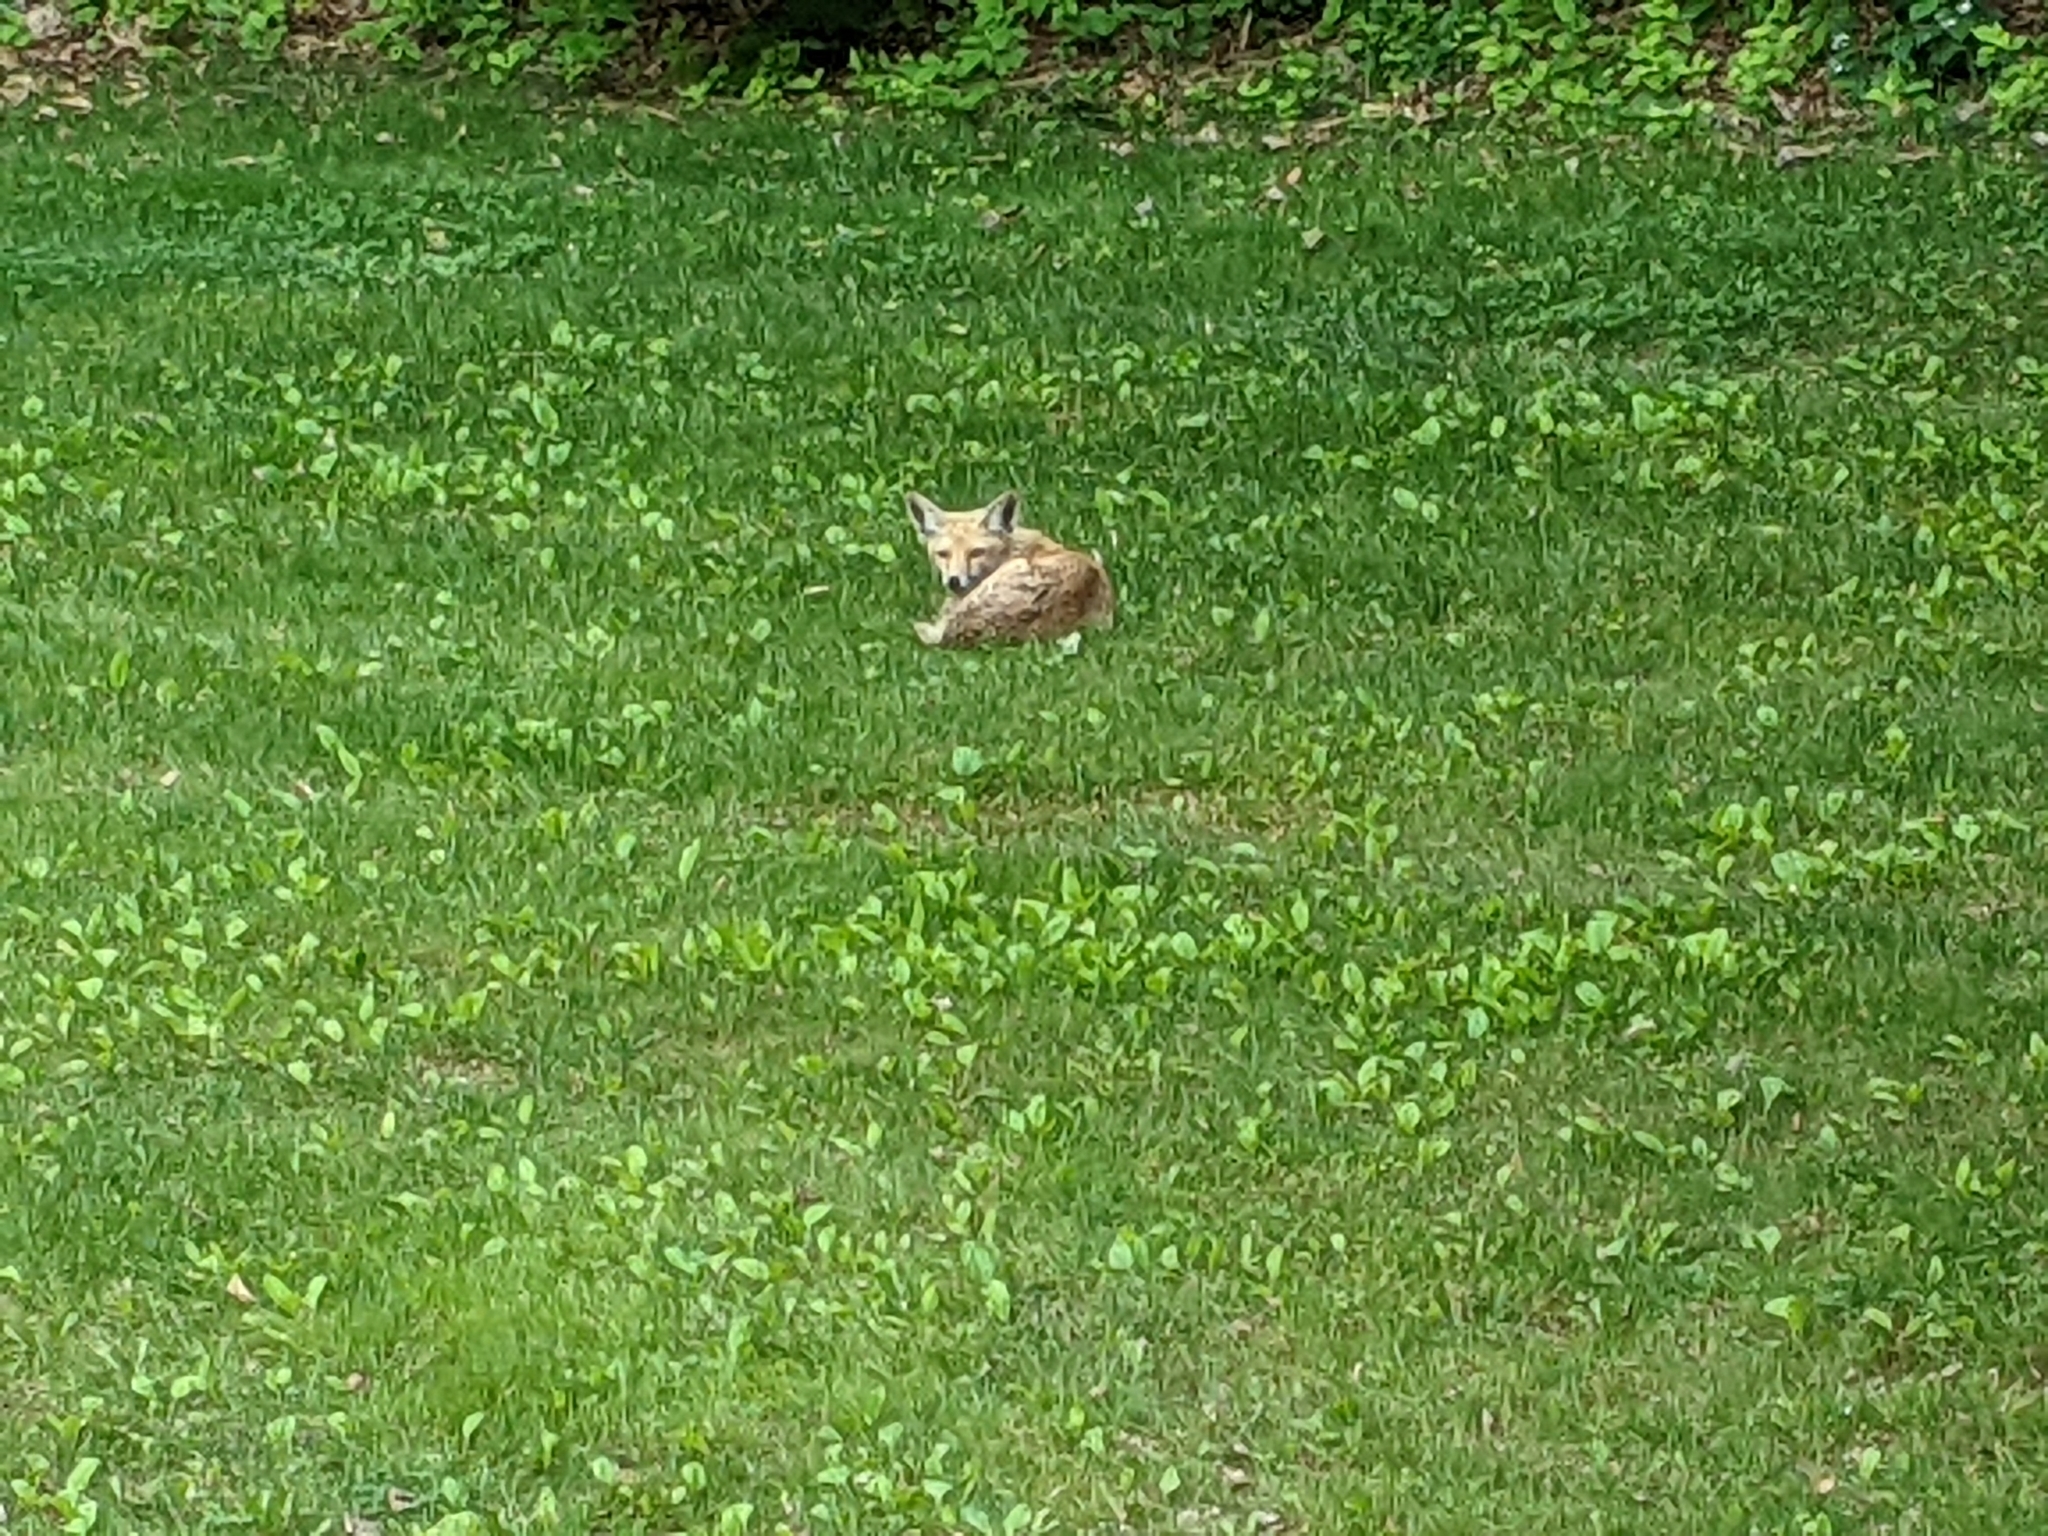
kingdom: Animalia
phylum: Chordata
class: Mammalia
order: Carnivora
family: Canidae
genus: Vulpes
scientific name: Vulpes vulpes
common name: Red fox
